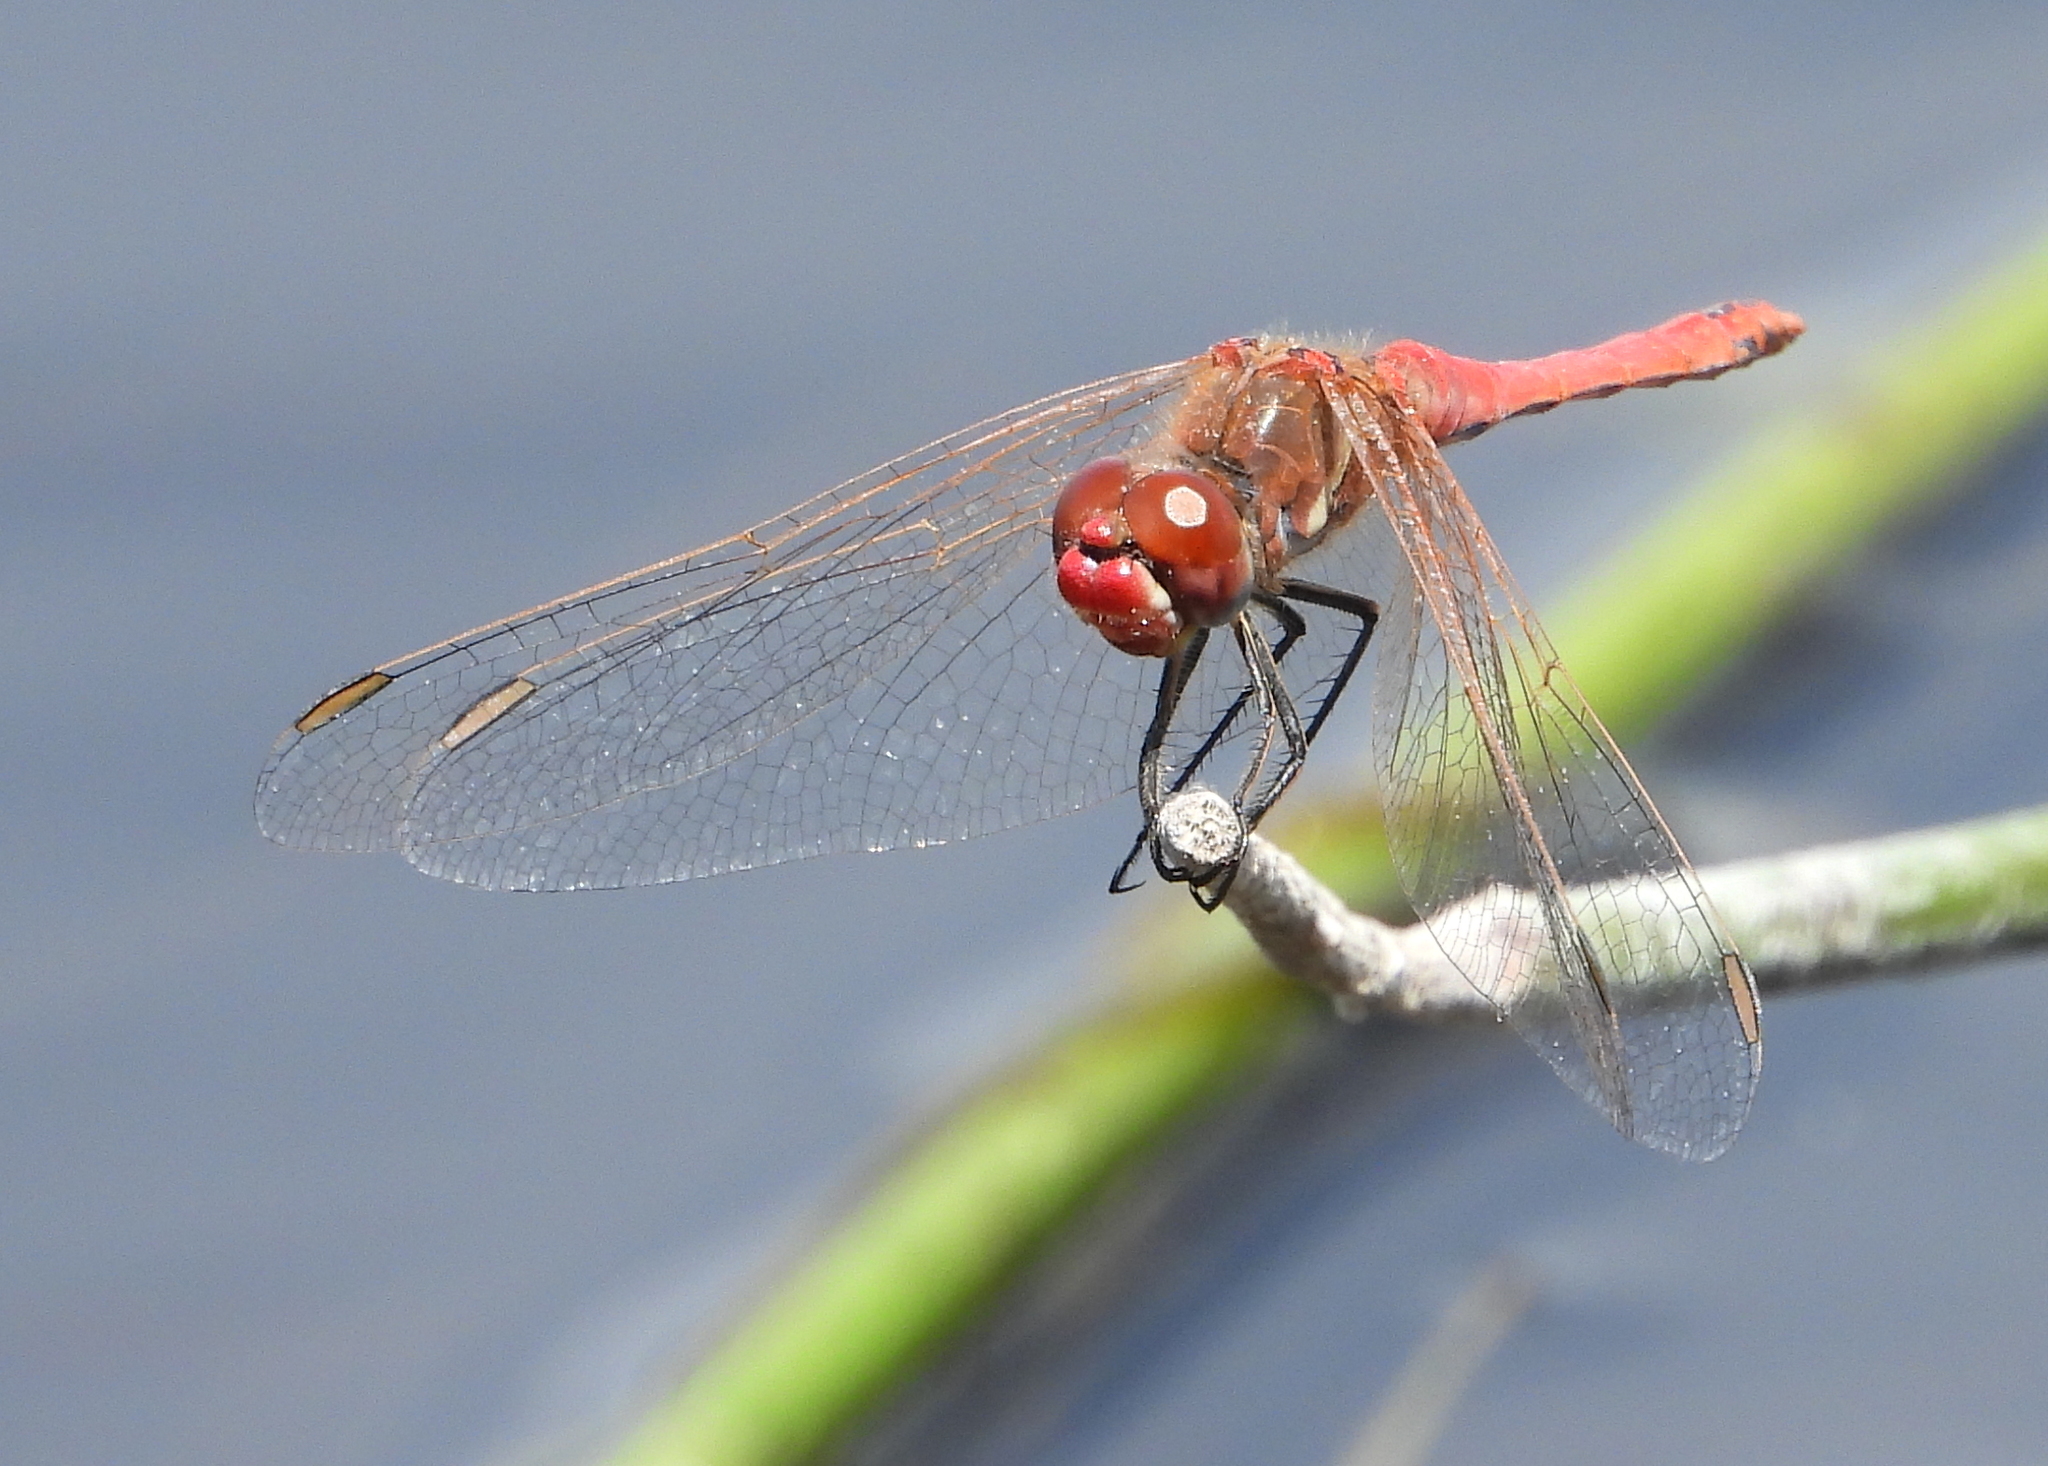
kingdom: Animalia
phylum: Arthropoda
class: Insecta
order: Odonata
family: Libellulidae
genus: Sympetrum
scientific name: Sympetrum fonscolombii
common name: Red-veined darter
